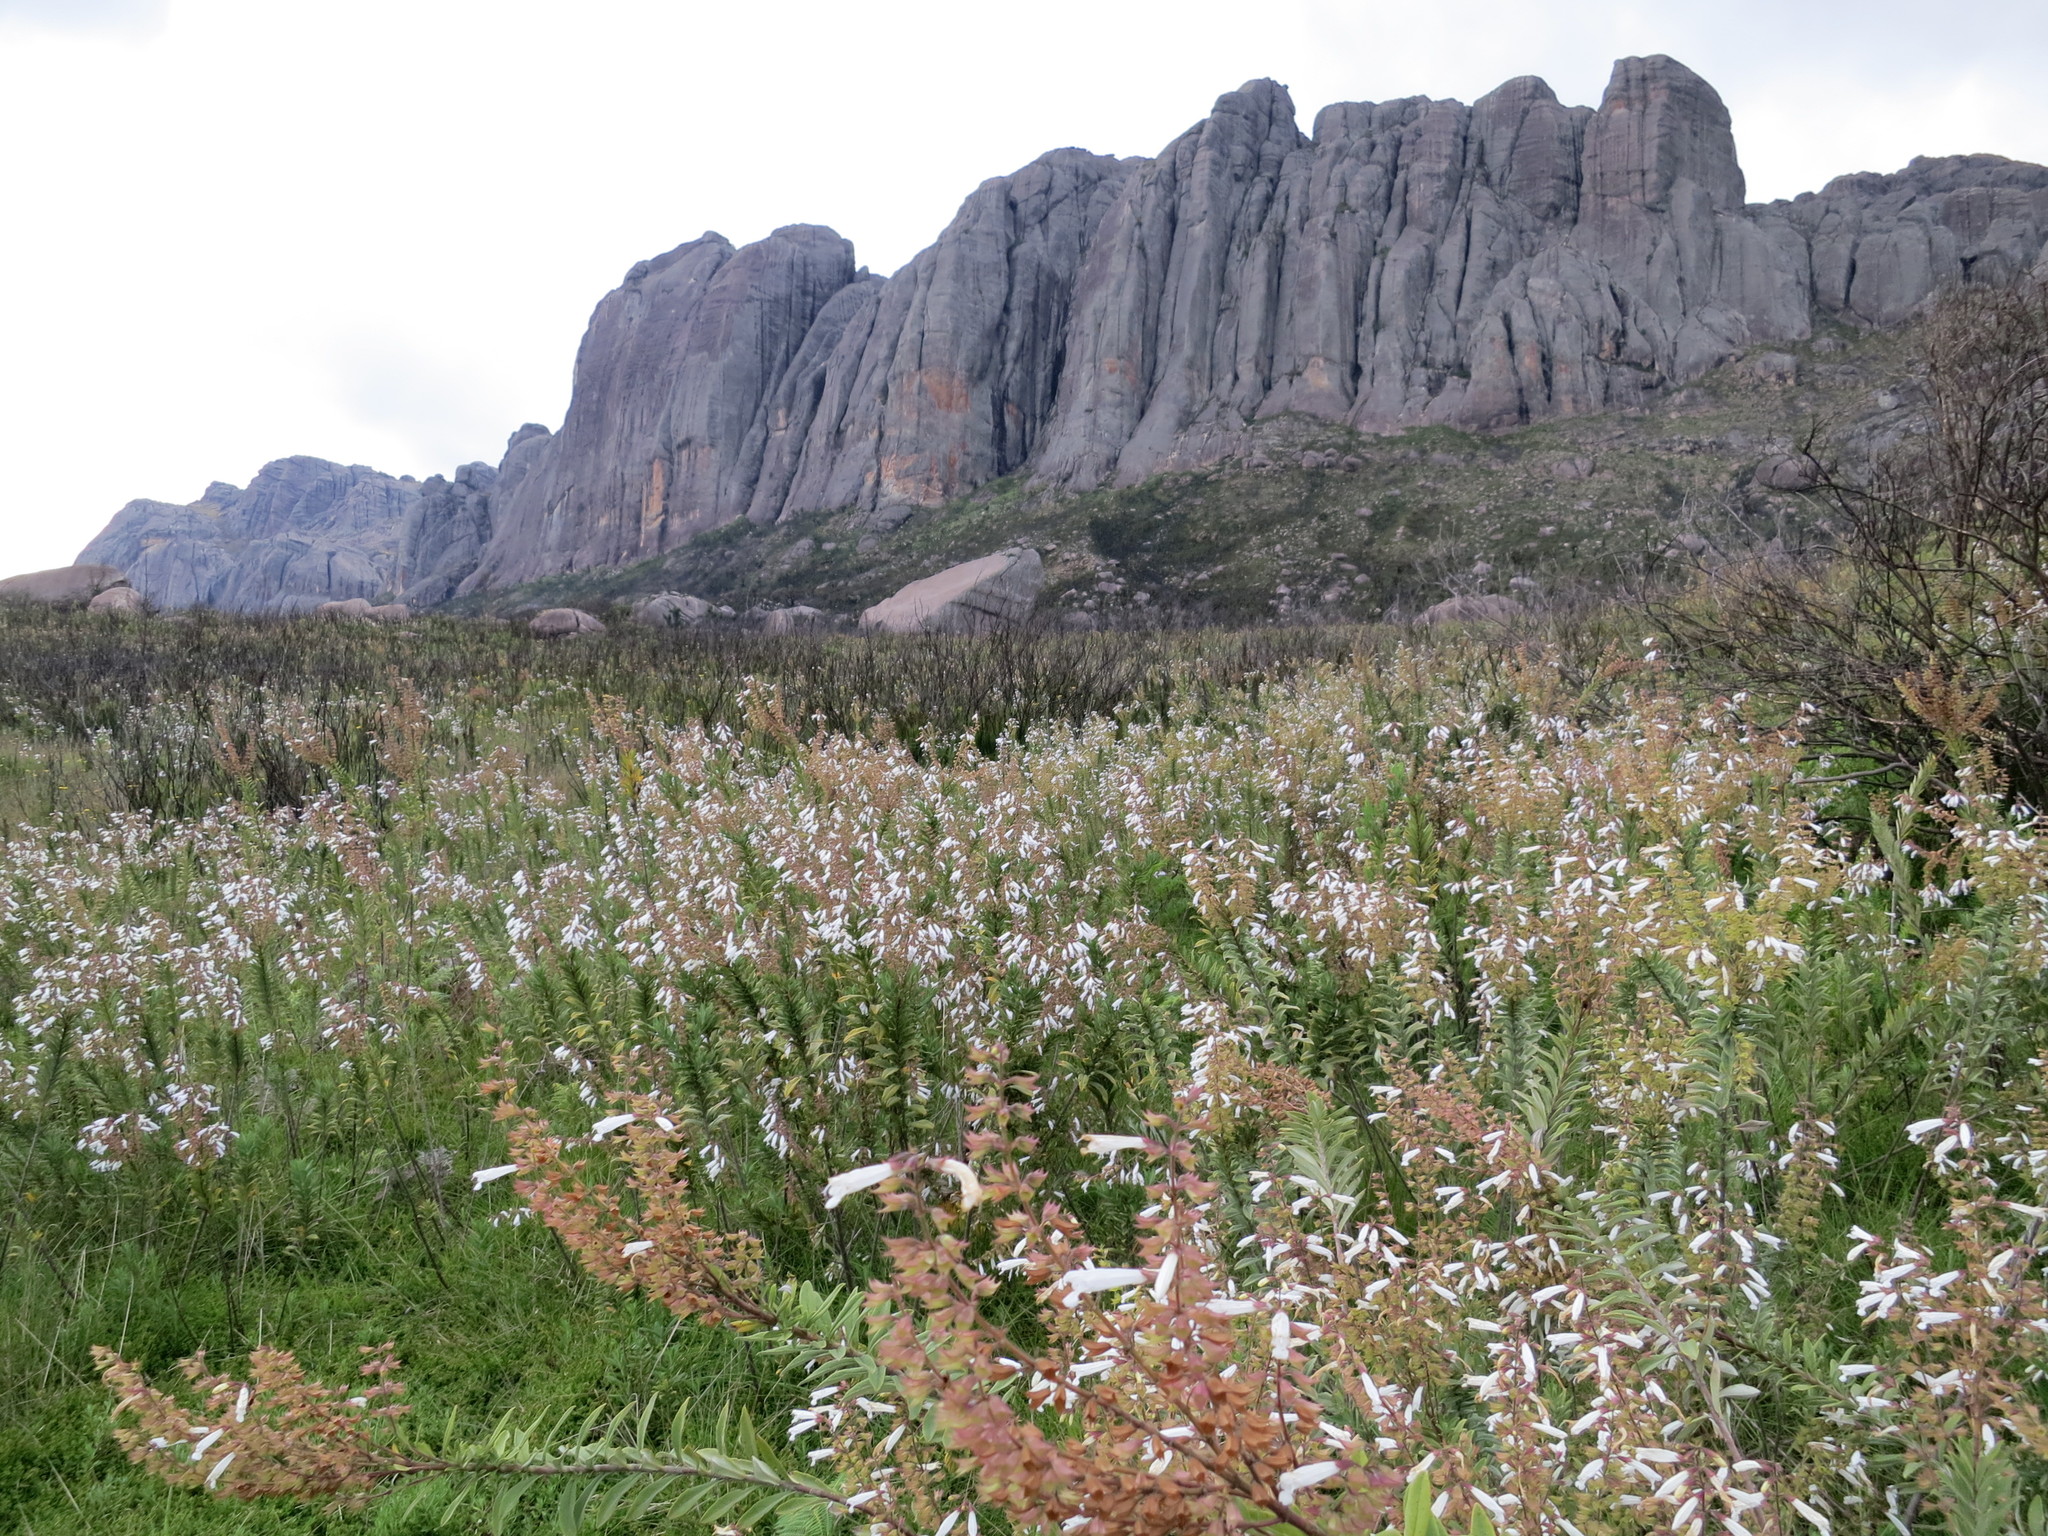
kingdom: Plantae
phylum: Tracheophyta
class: Magnoliopsida
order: Lamiales
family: Lamiaceae
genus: Salvia
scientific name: Salvia leucodermis
